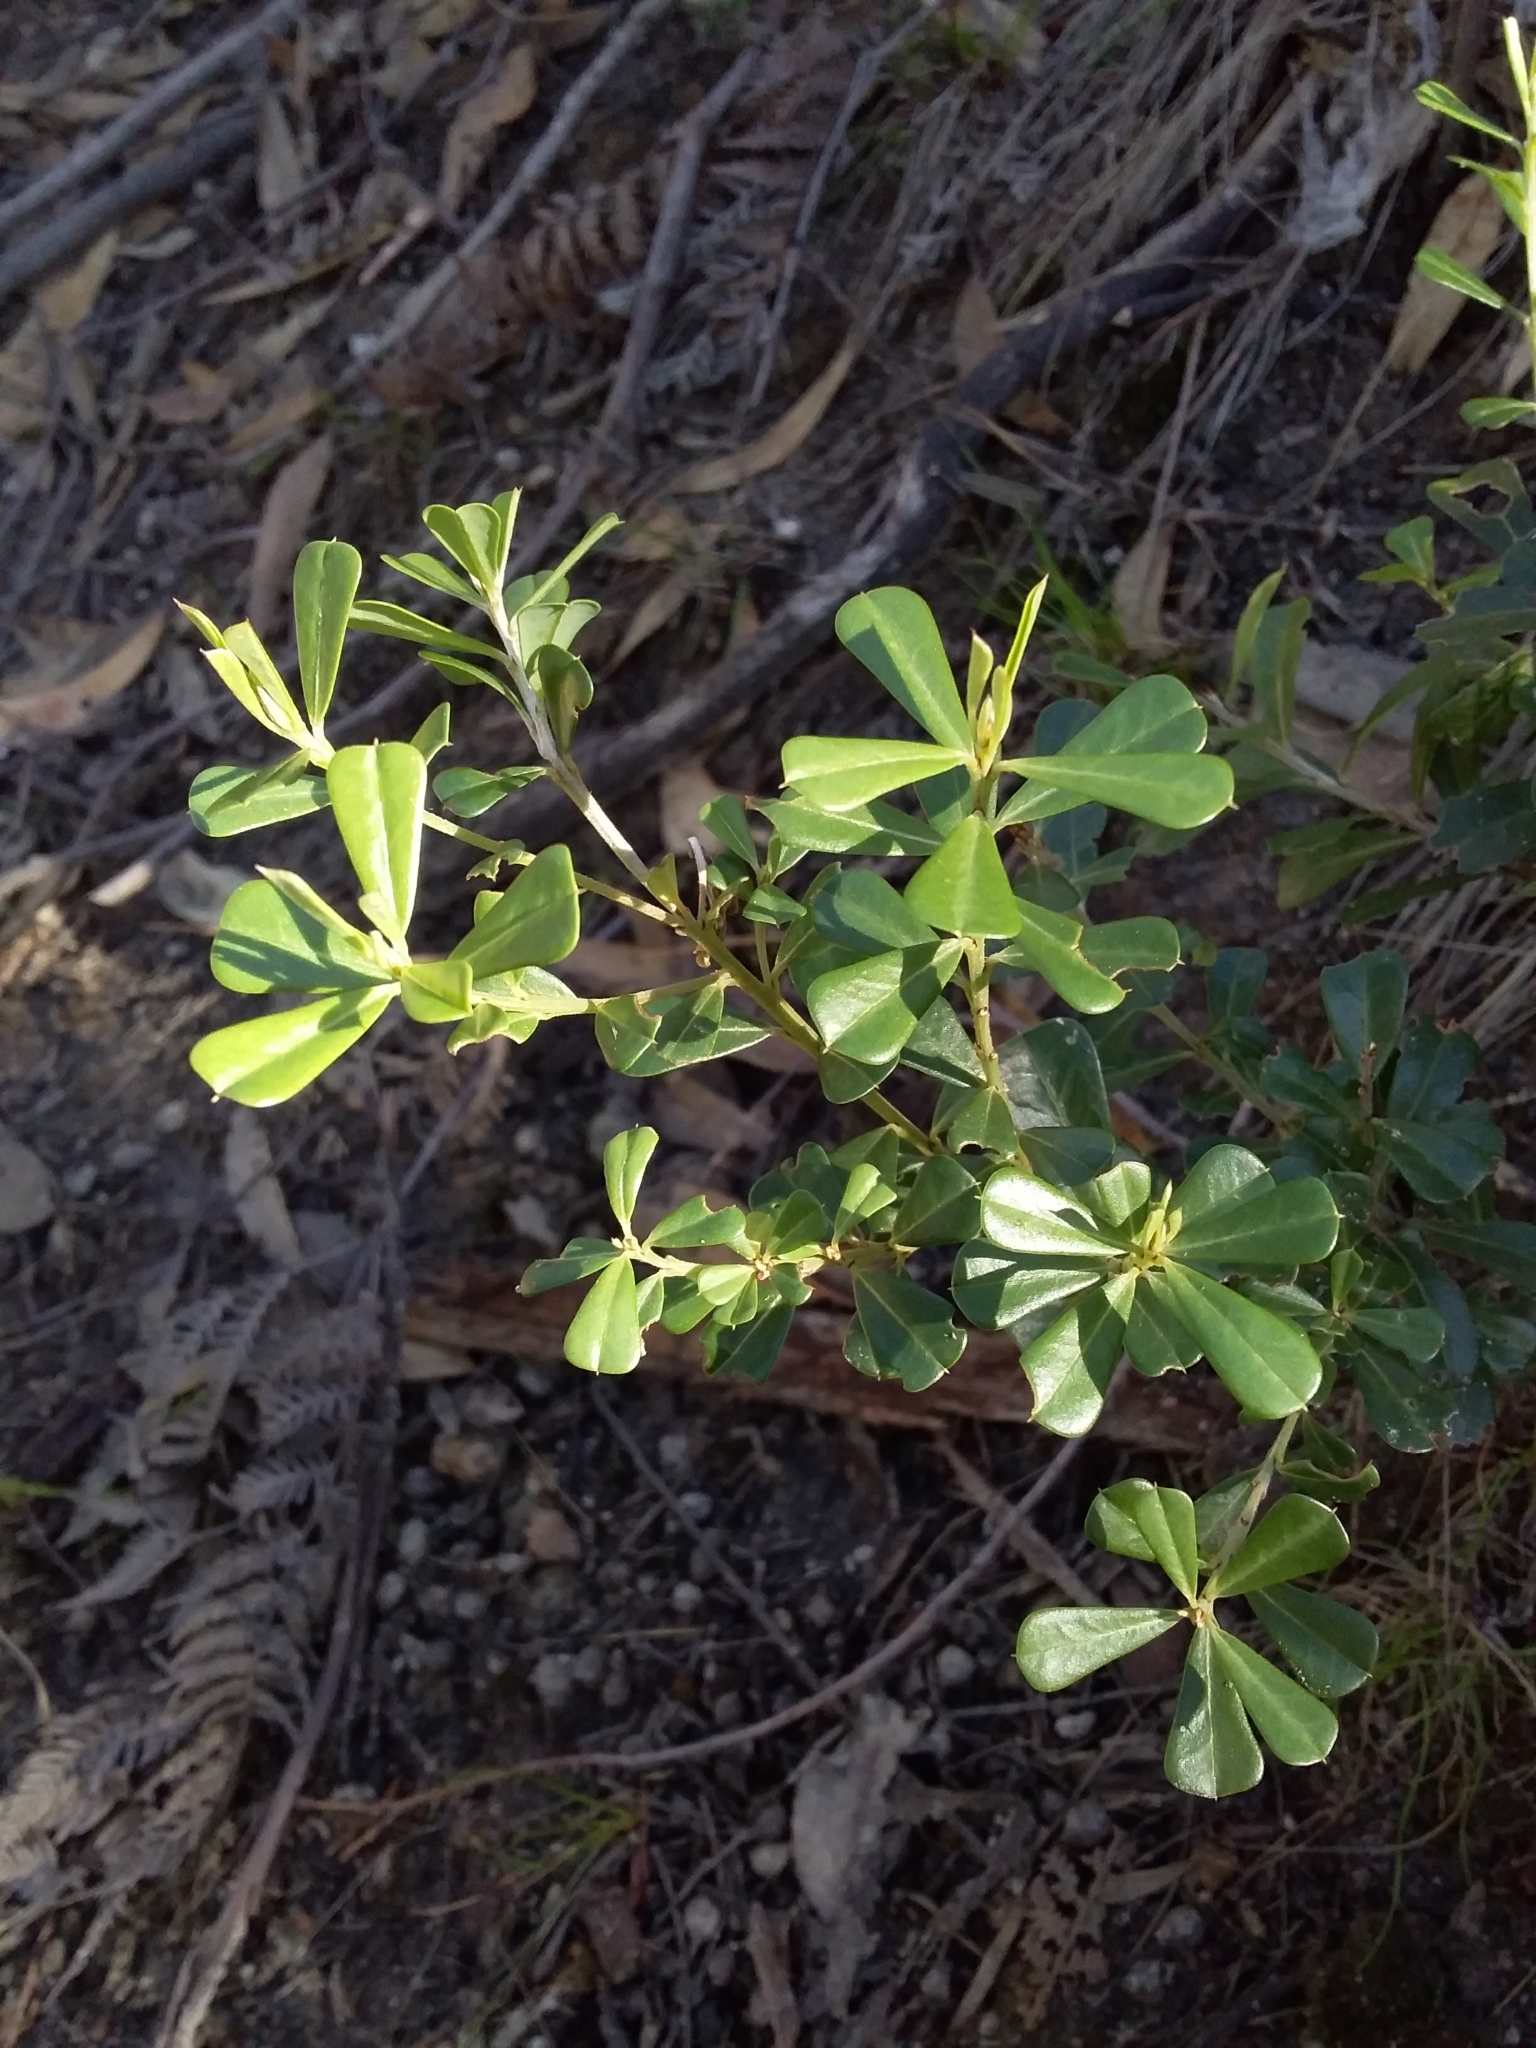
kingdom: Plantae
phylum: Tracheophyta
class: Magnoliopsida
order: Fabales
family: Fabaceae
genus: Pultenaea
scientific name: Pultenaea daphnoides
